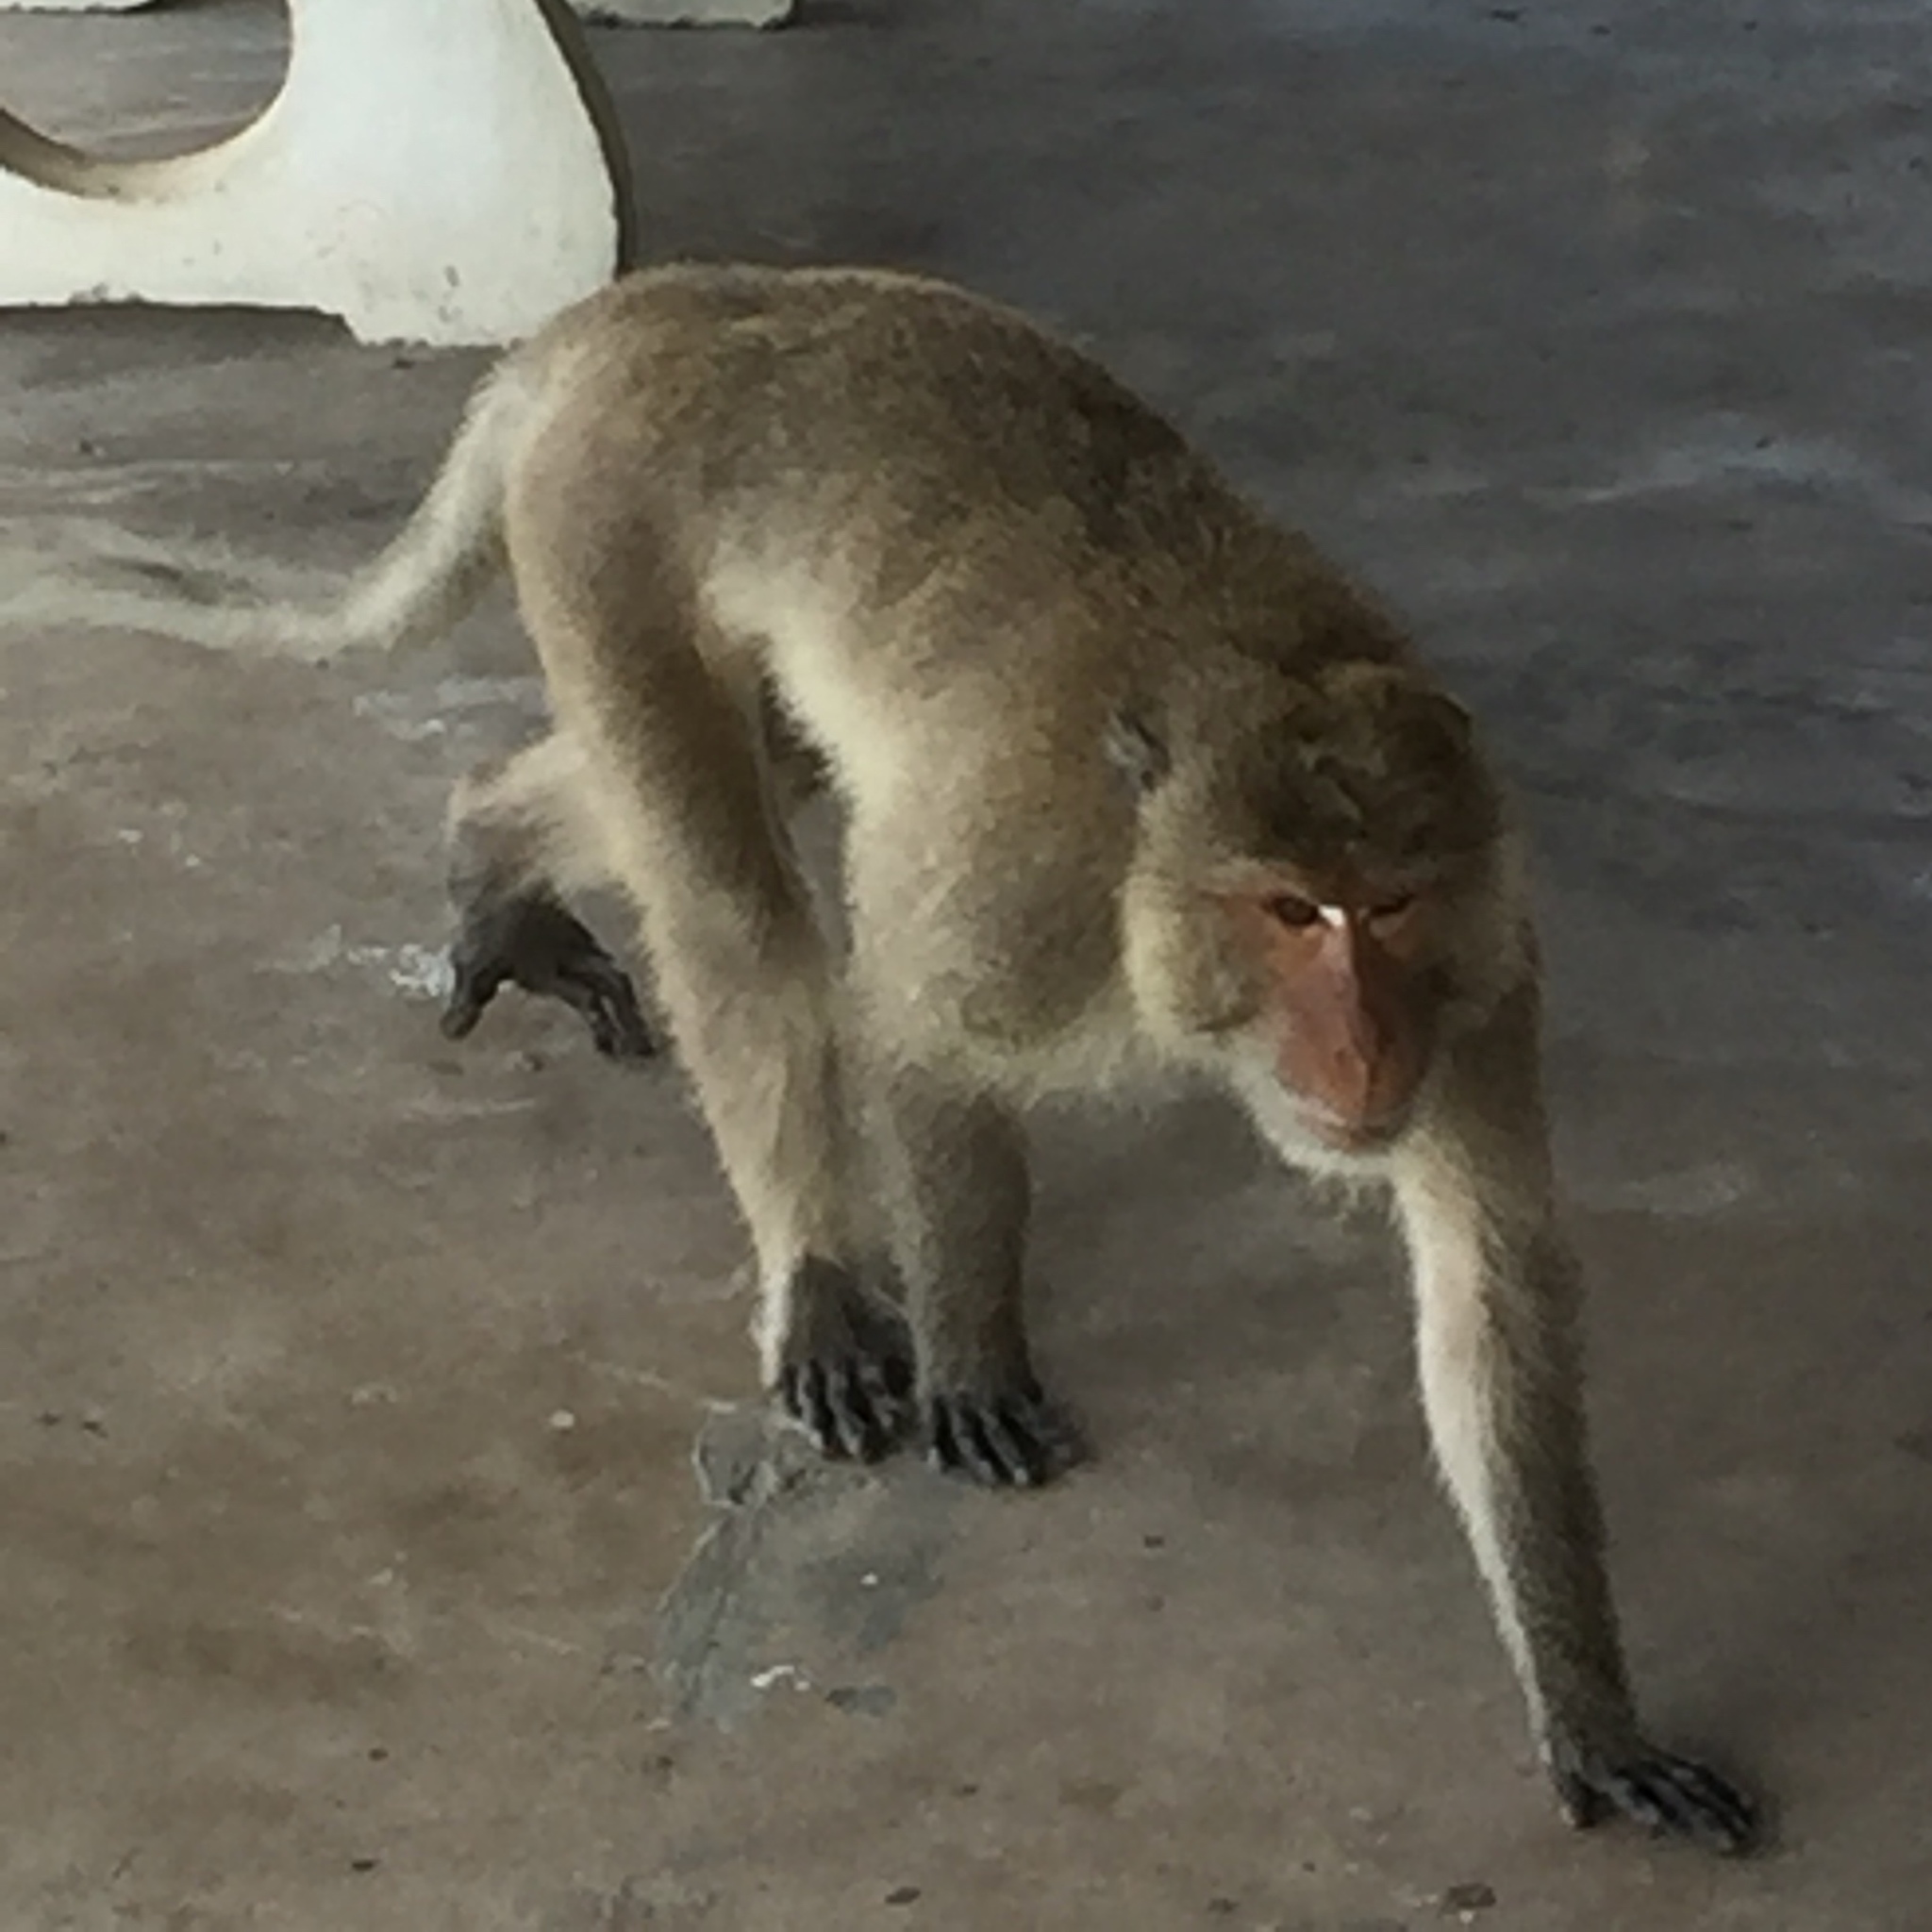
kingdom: Animalia
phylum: Chordata
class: Mammalia
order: Primates
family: Cercopithecidae
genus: Macaca
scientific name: Macaca fascicularis
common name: Crab-eating macaque
